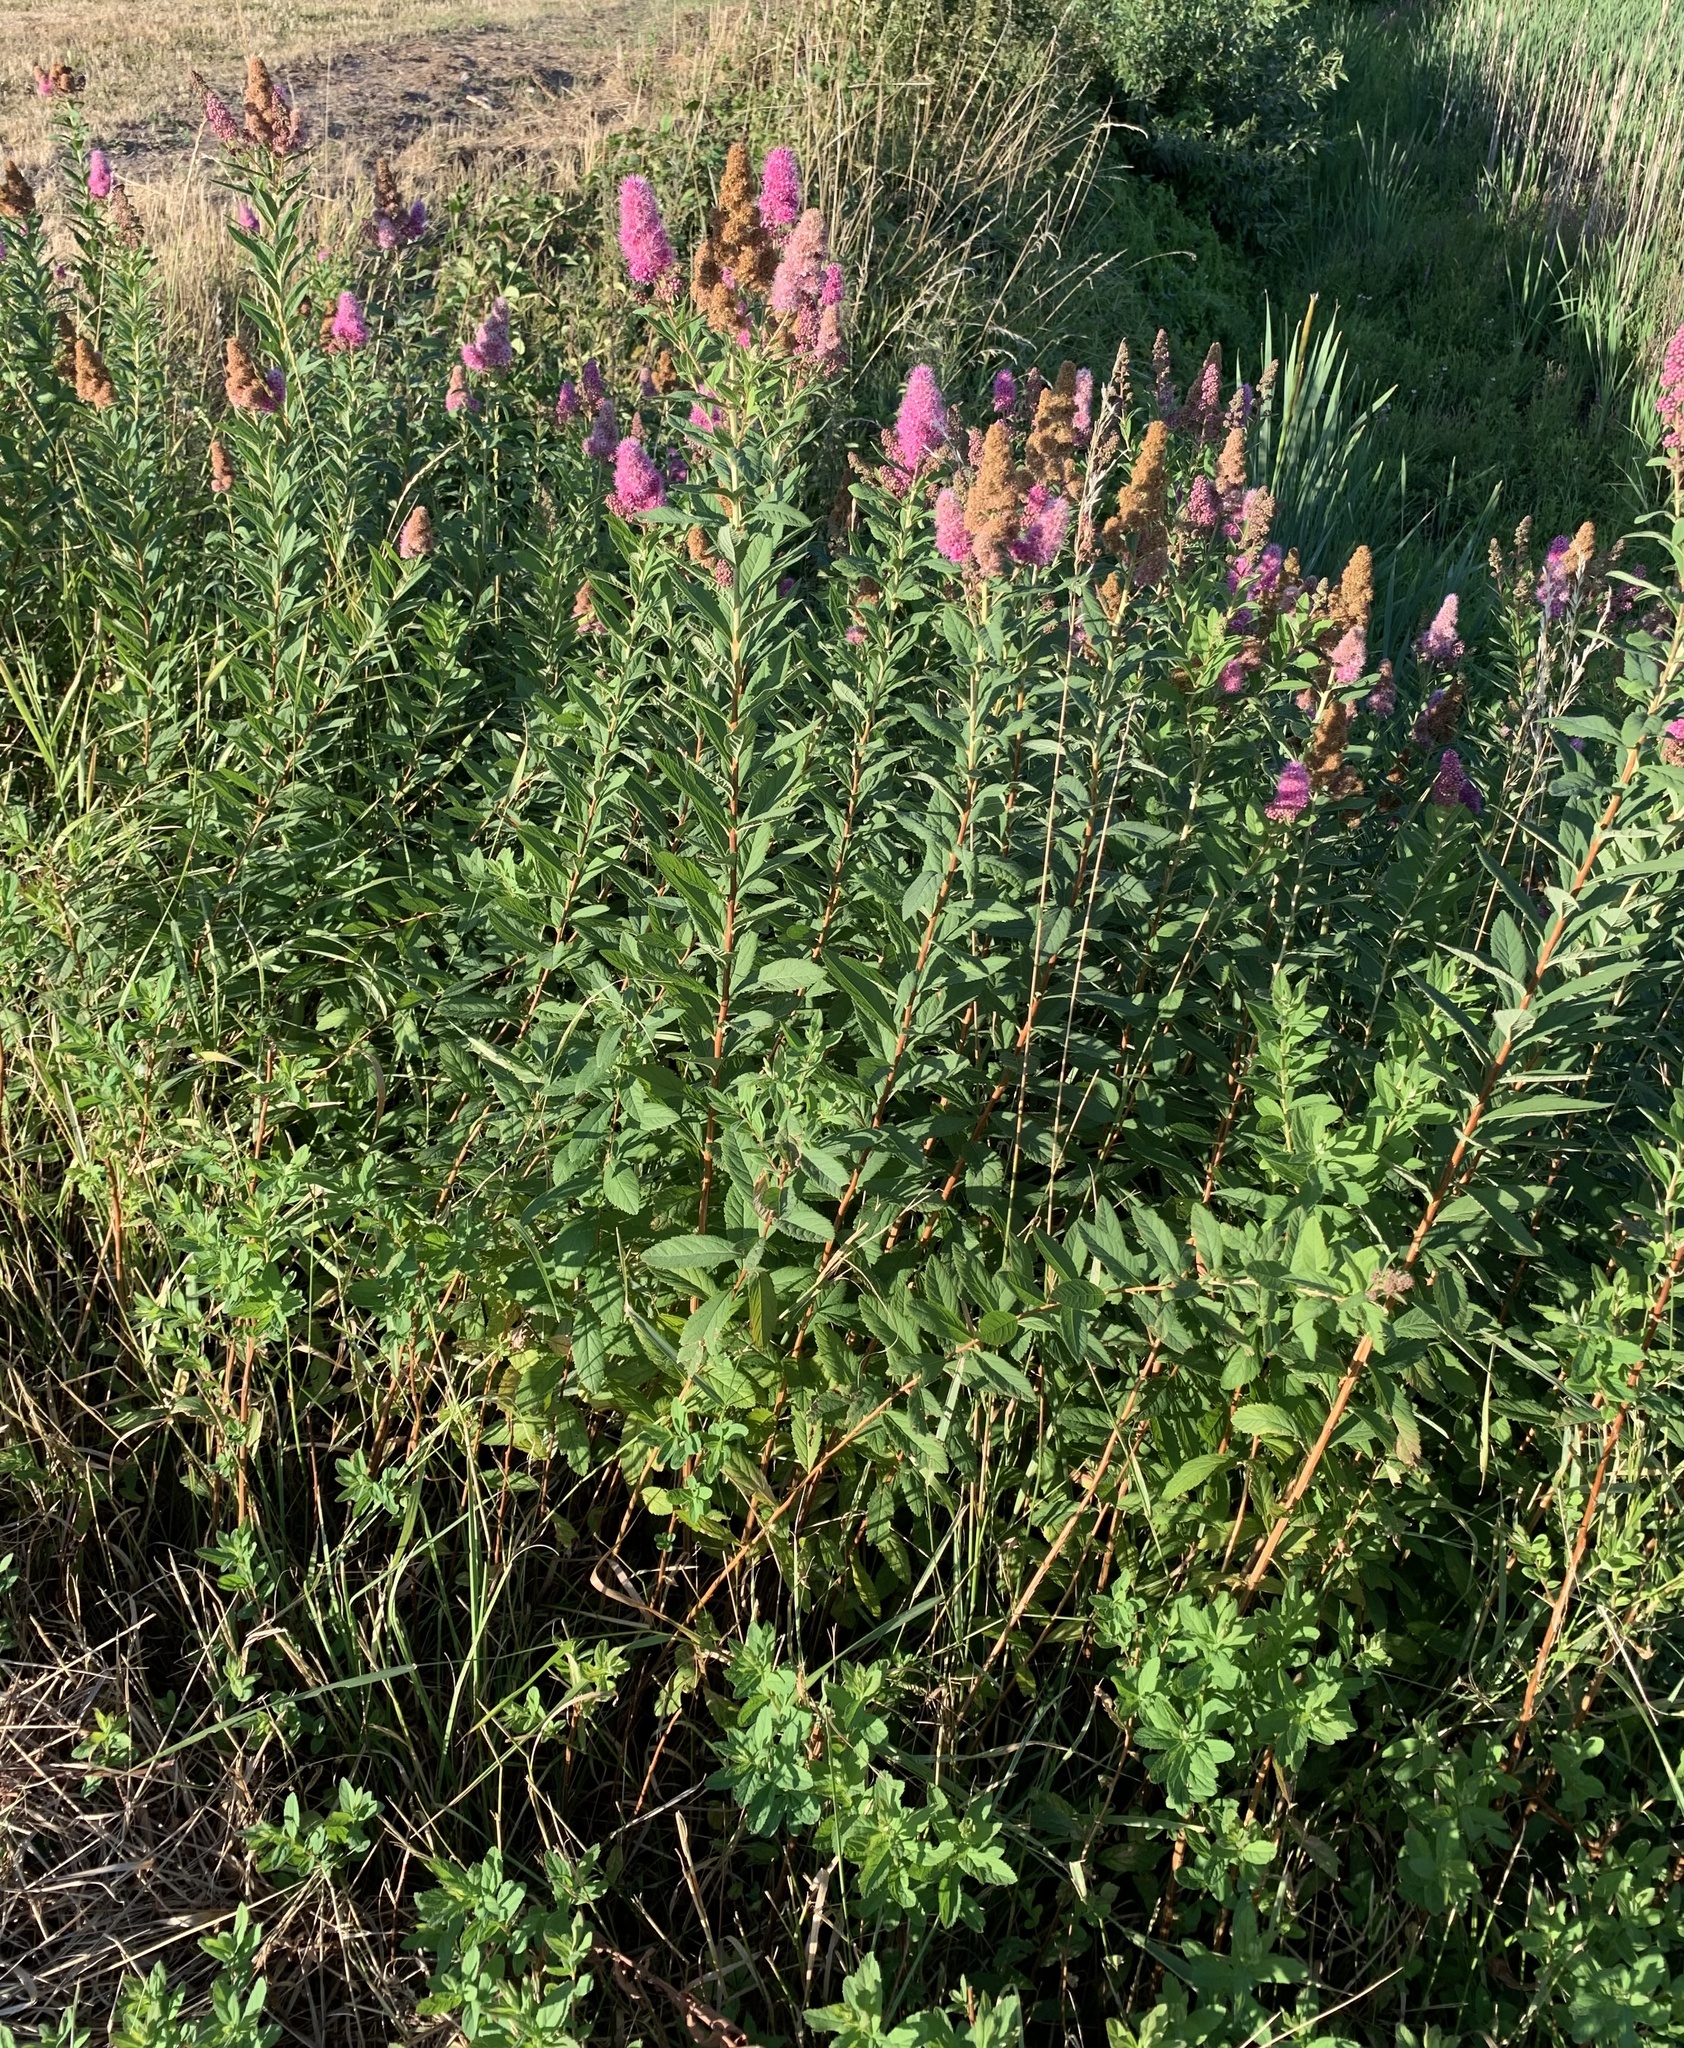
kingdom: Plantae
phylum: Tracheophyta
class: Magnoliopsida
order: Rosales
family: Rosaceae
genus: Spiraea
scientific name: Spiraea douglasii
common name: Steeplebush
